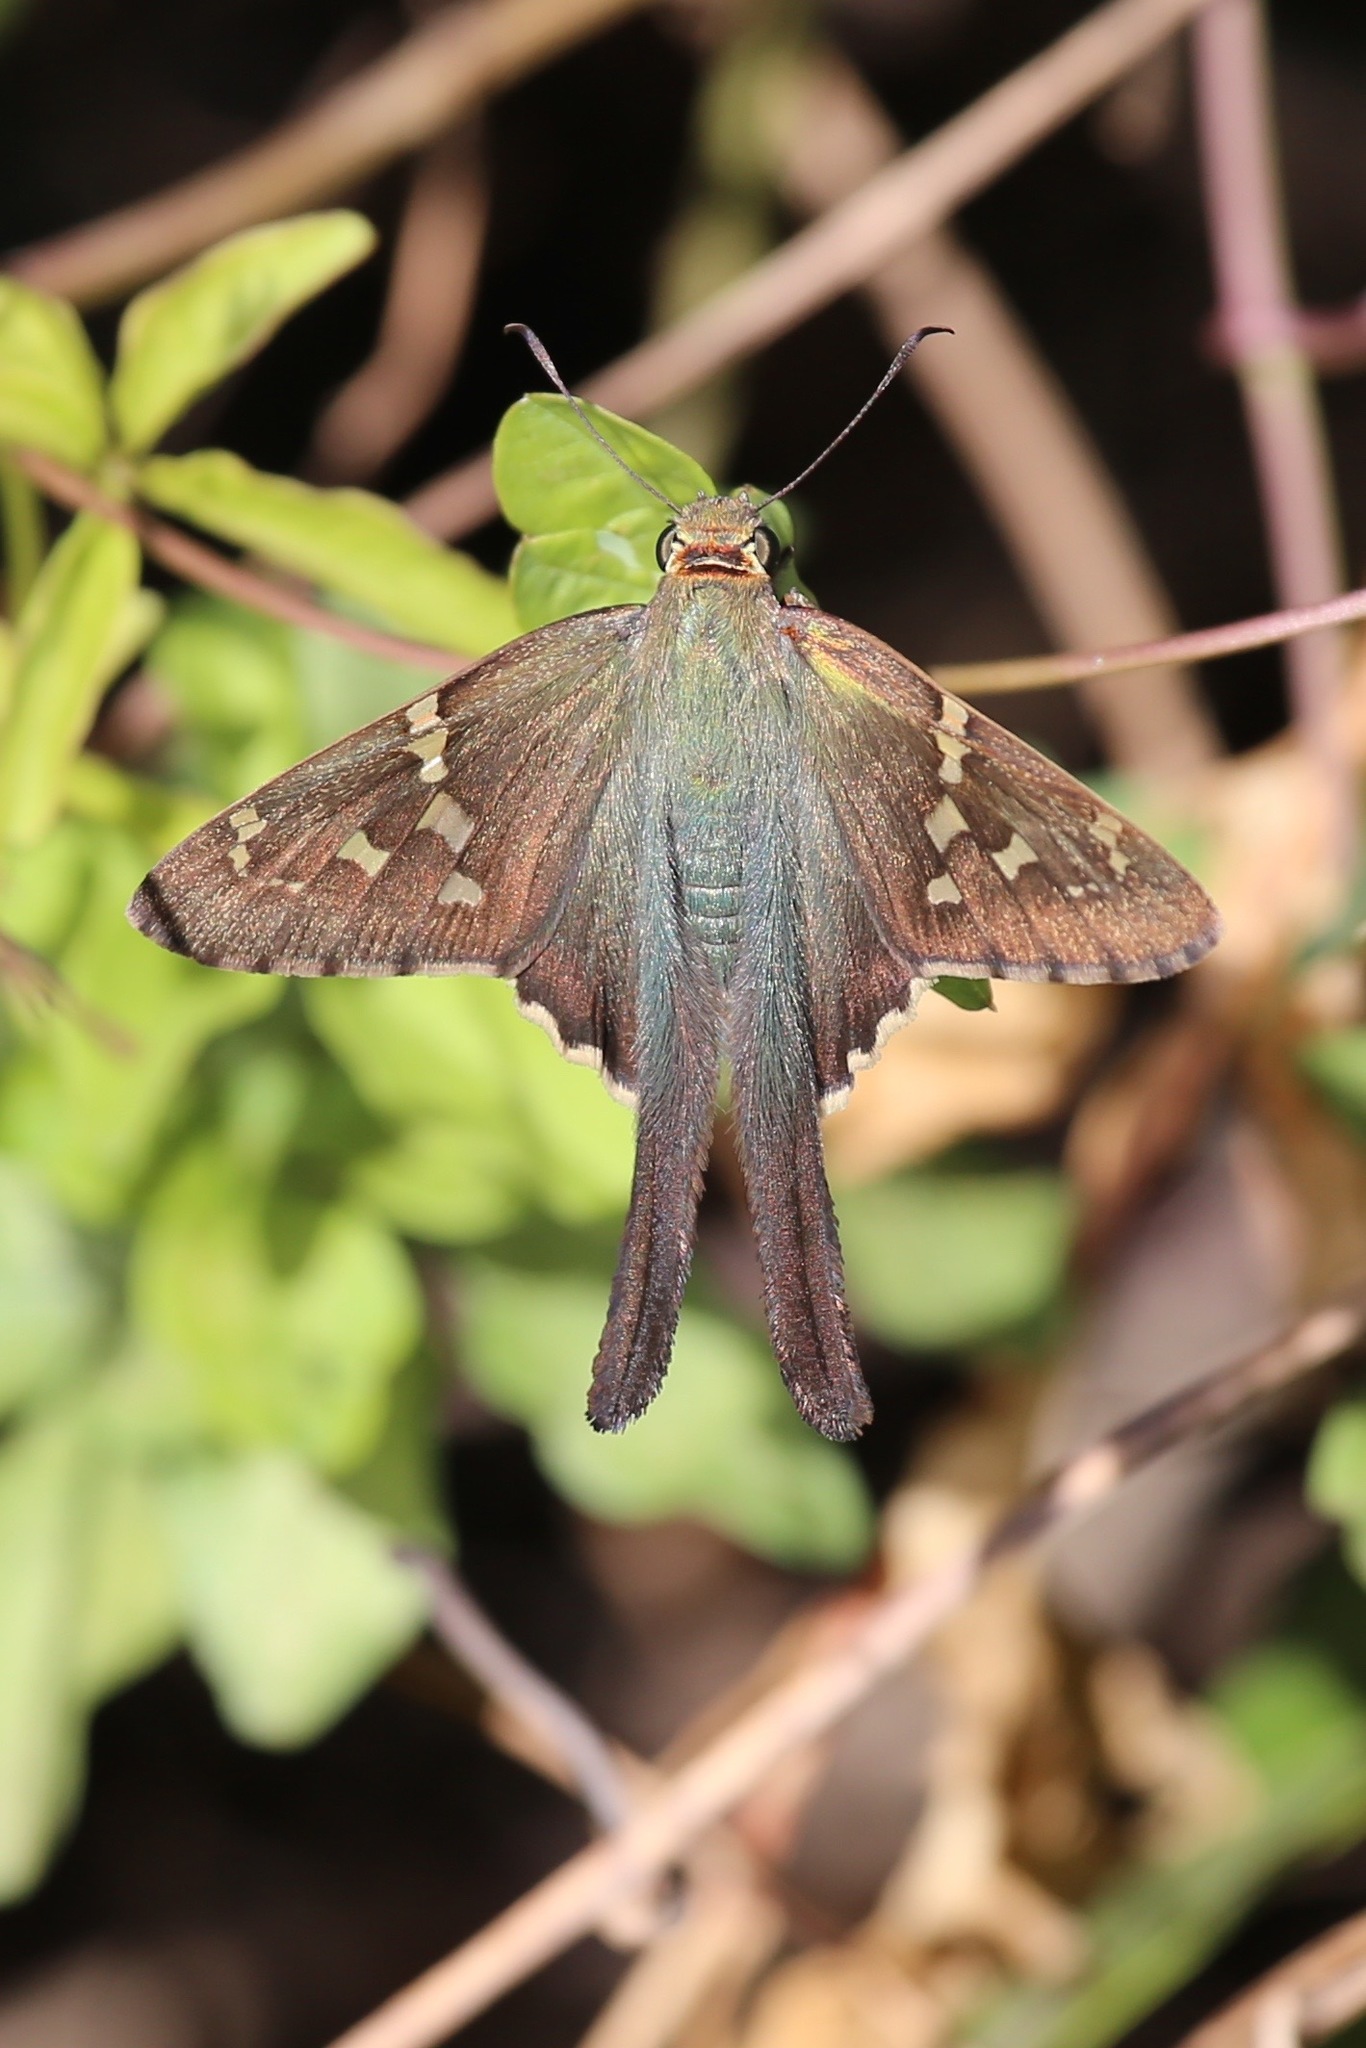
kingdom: Animalia
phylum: Arthropoda
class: Insecta
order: Lepidoptera
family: Hesperiidae
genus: Urbanus
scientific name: Urbanus proteus
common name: Long-tailed skipper
